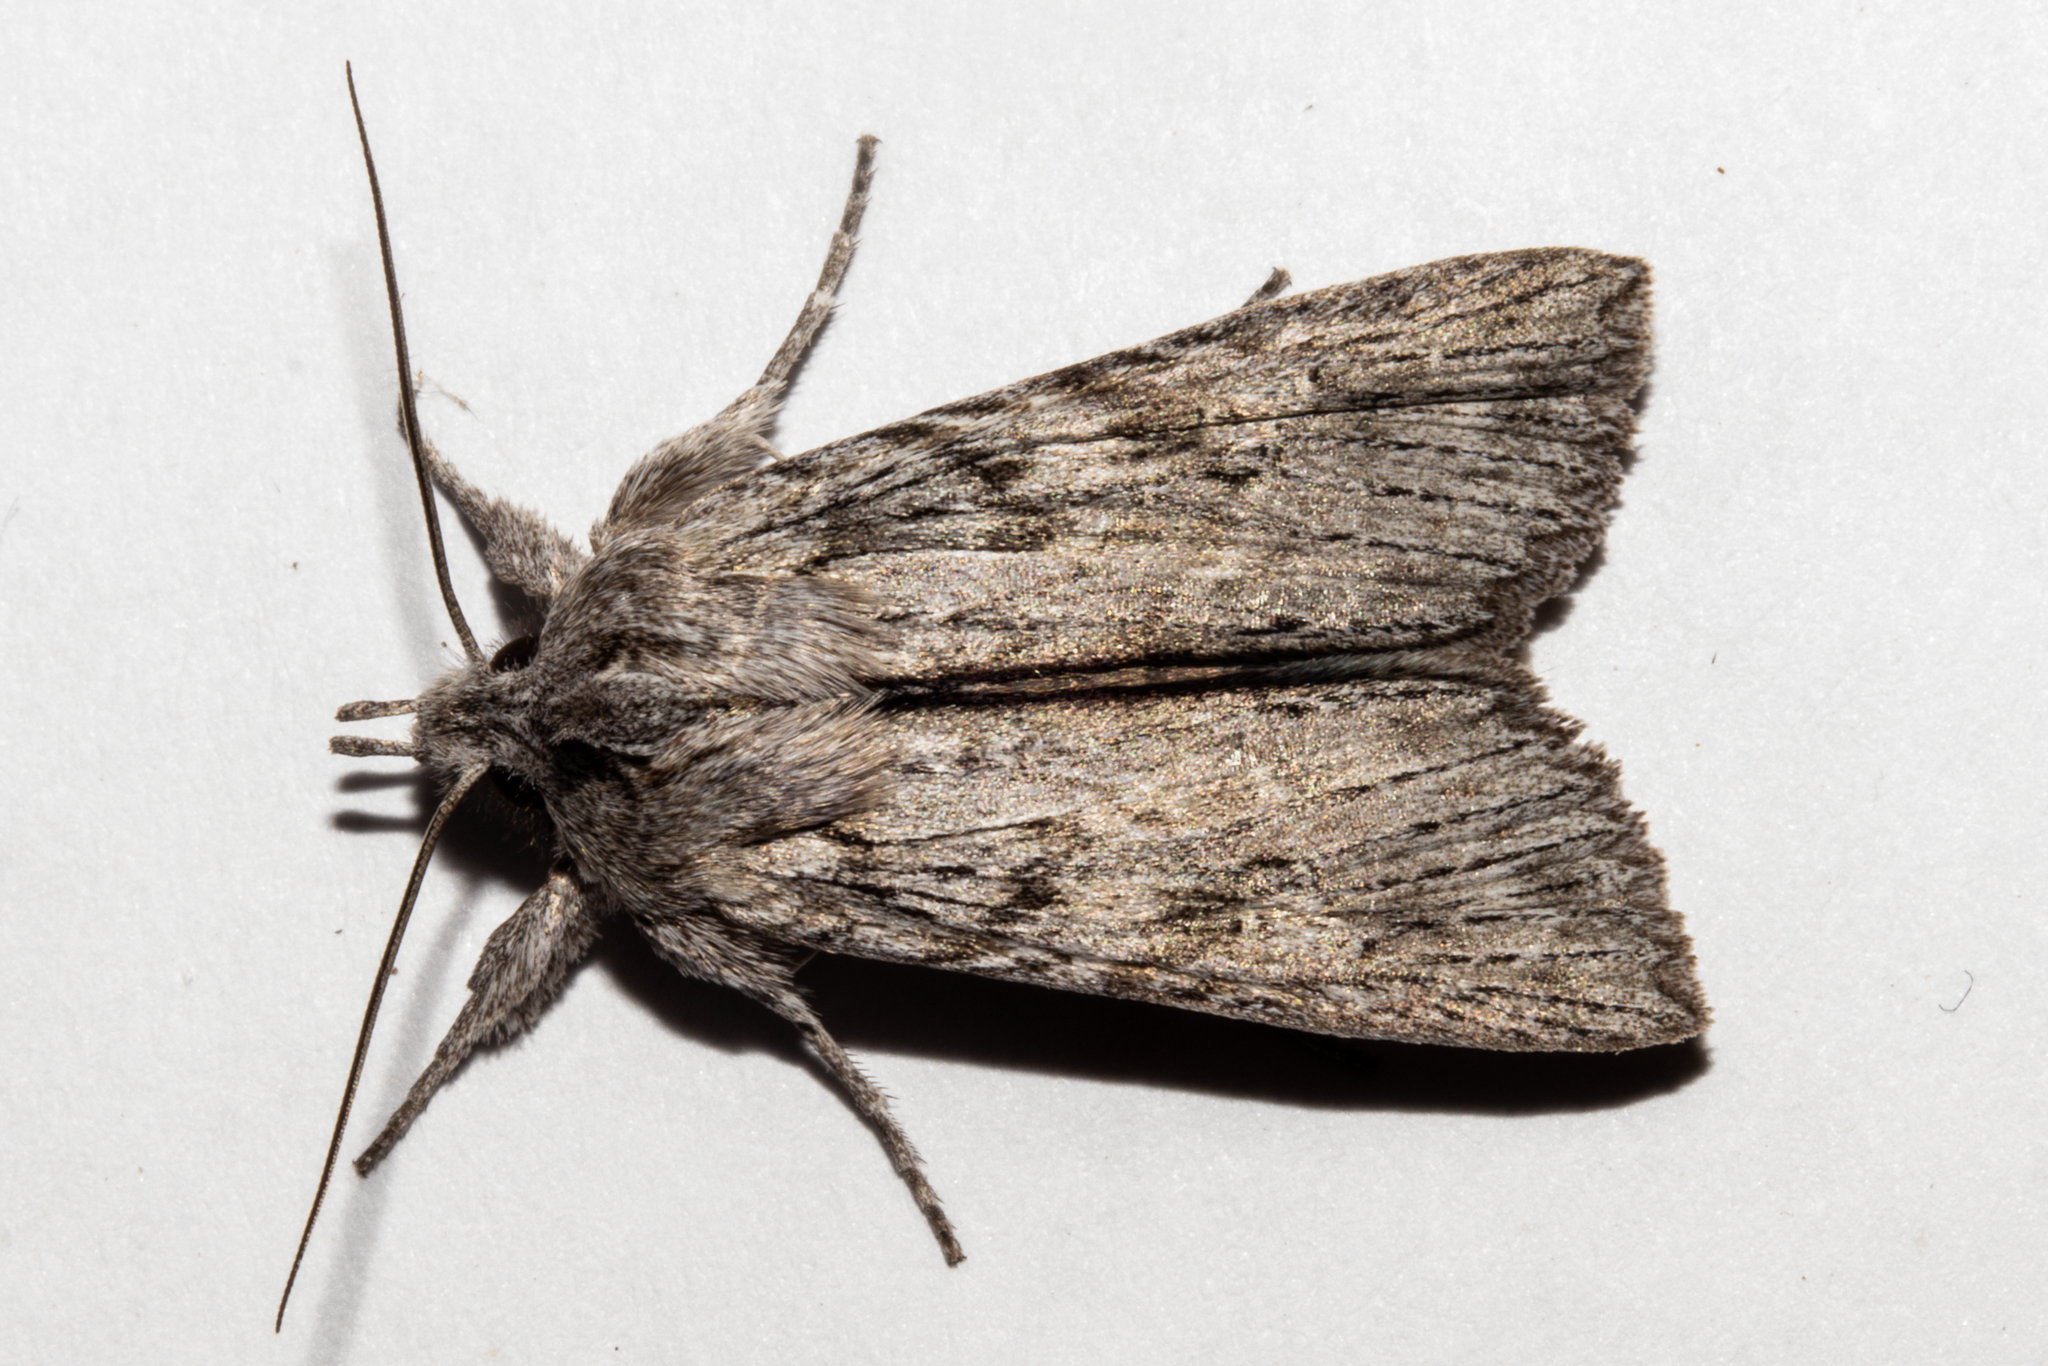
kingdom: Animalia
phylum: Arthropoda
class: Insecta
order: Lepidoptera
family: Noctuidae
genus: Physetica
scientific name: Physetica phricias
